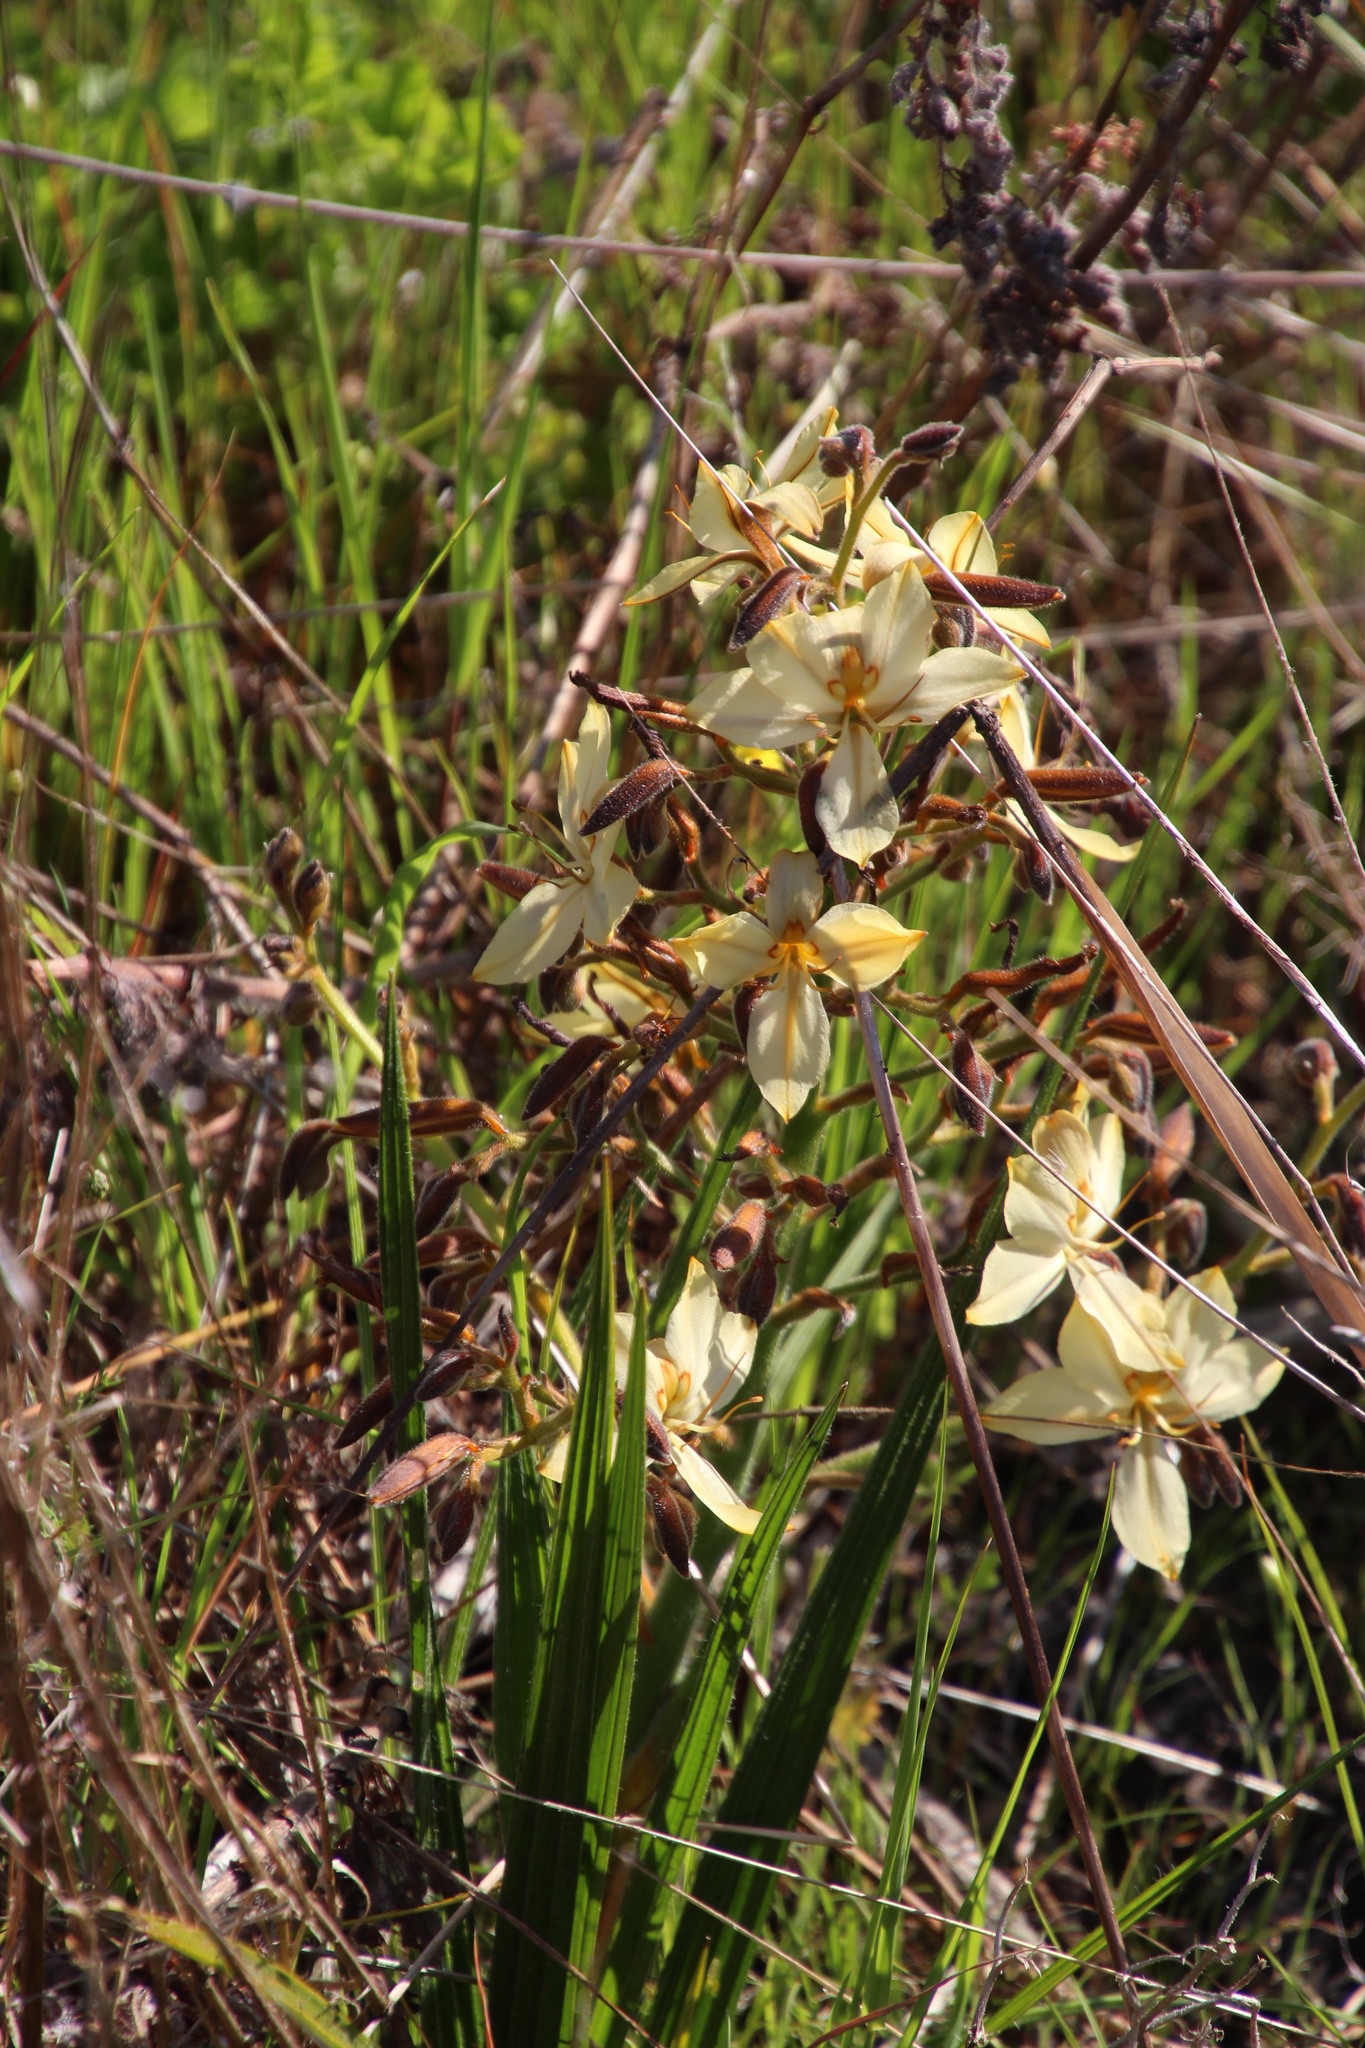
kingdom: Plantae
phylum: Tracheophyta
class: Liliopsida
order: Commelinales
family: Haemodoraceae
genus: Wachendorfia
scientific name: Wachendorfia paniculata
